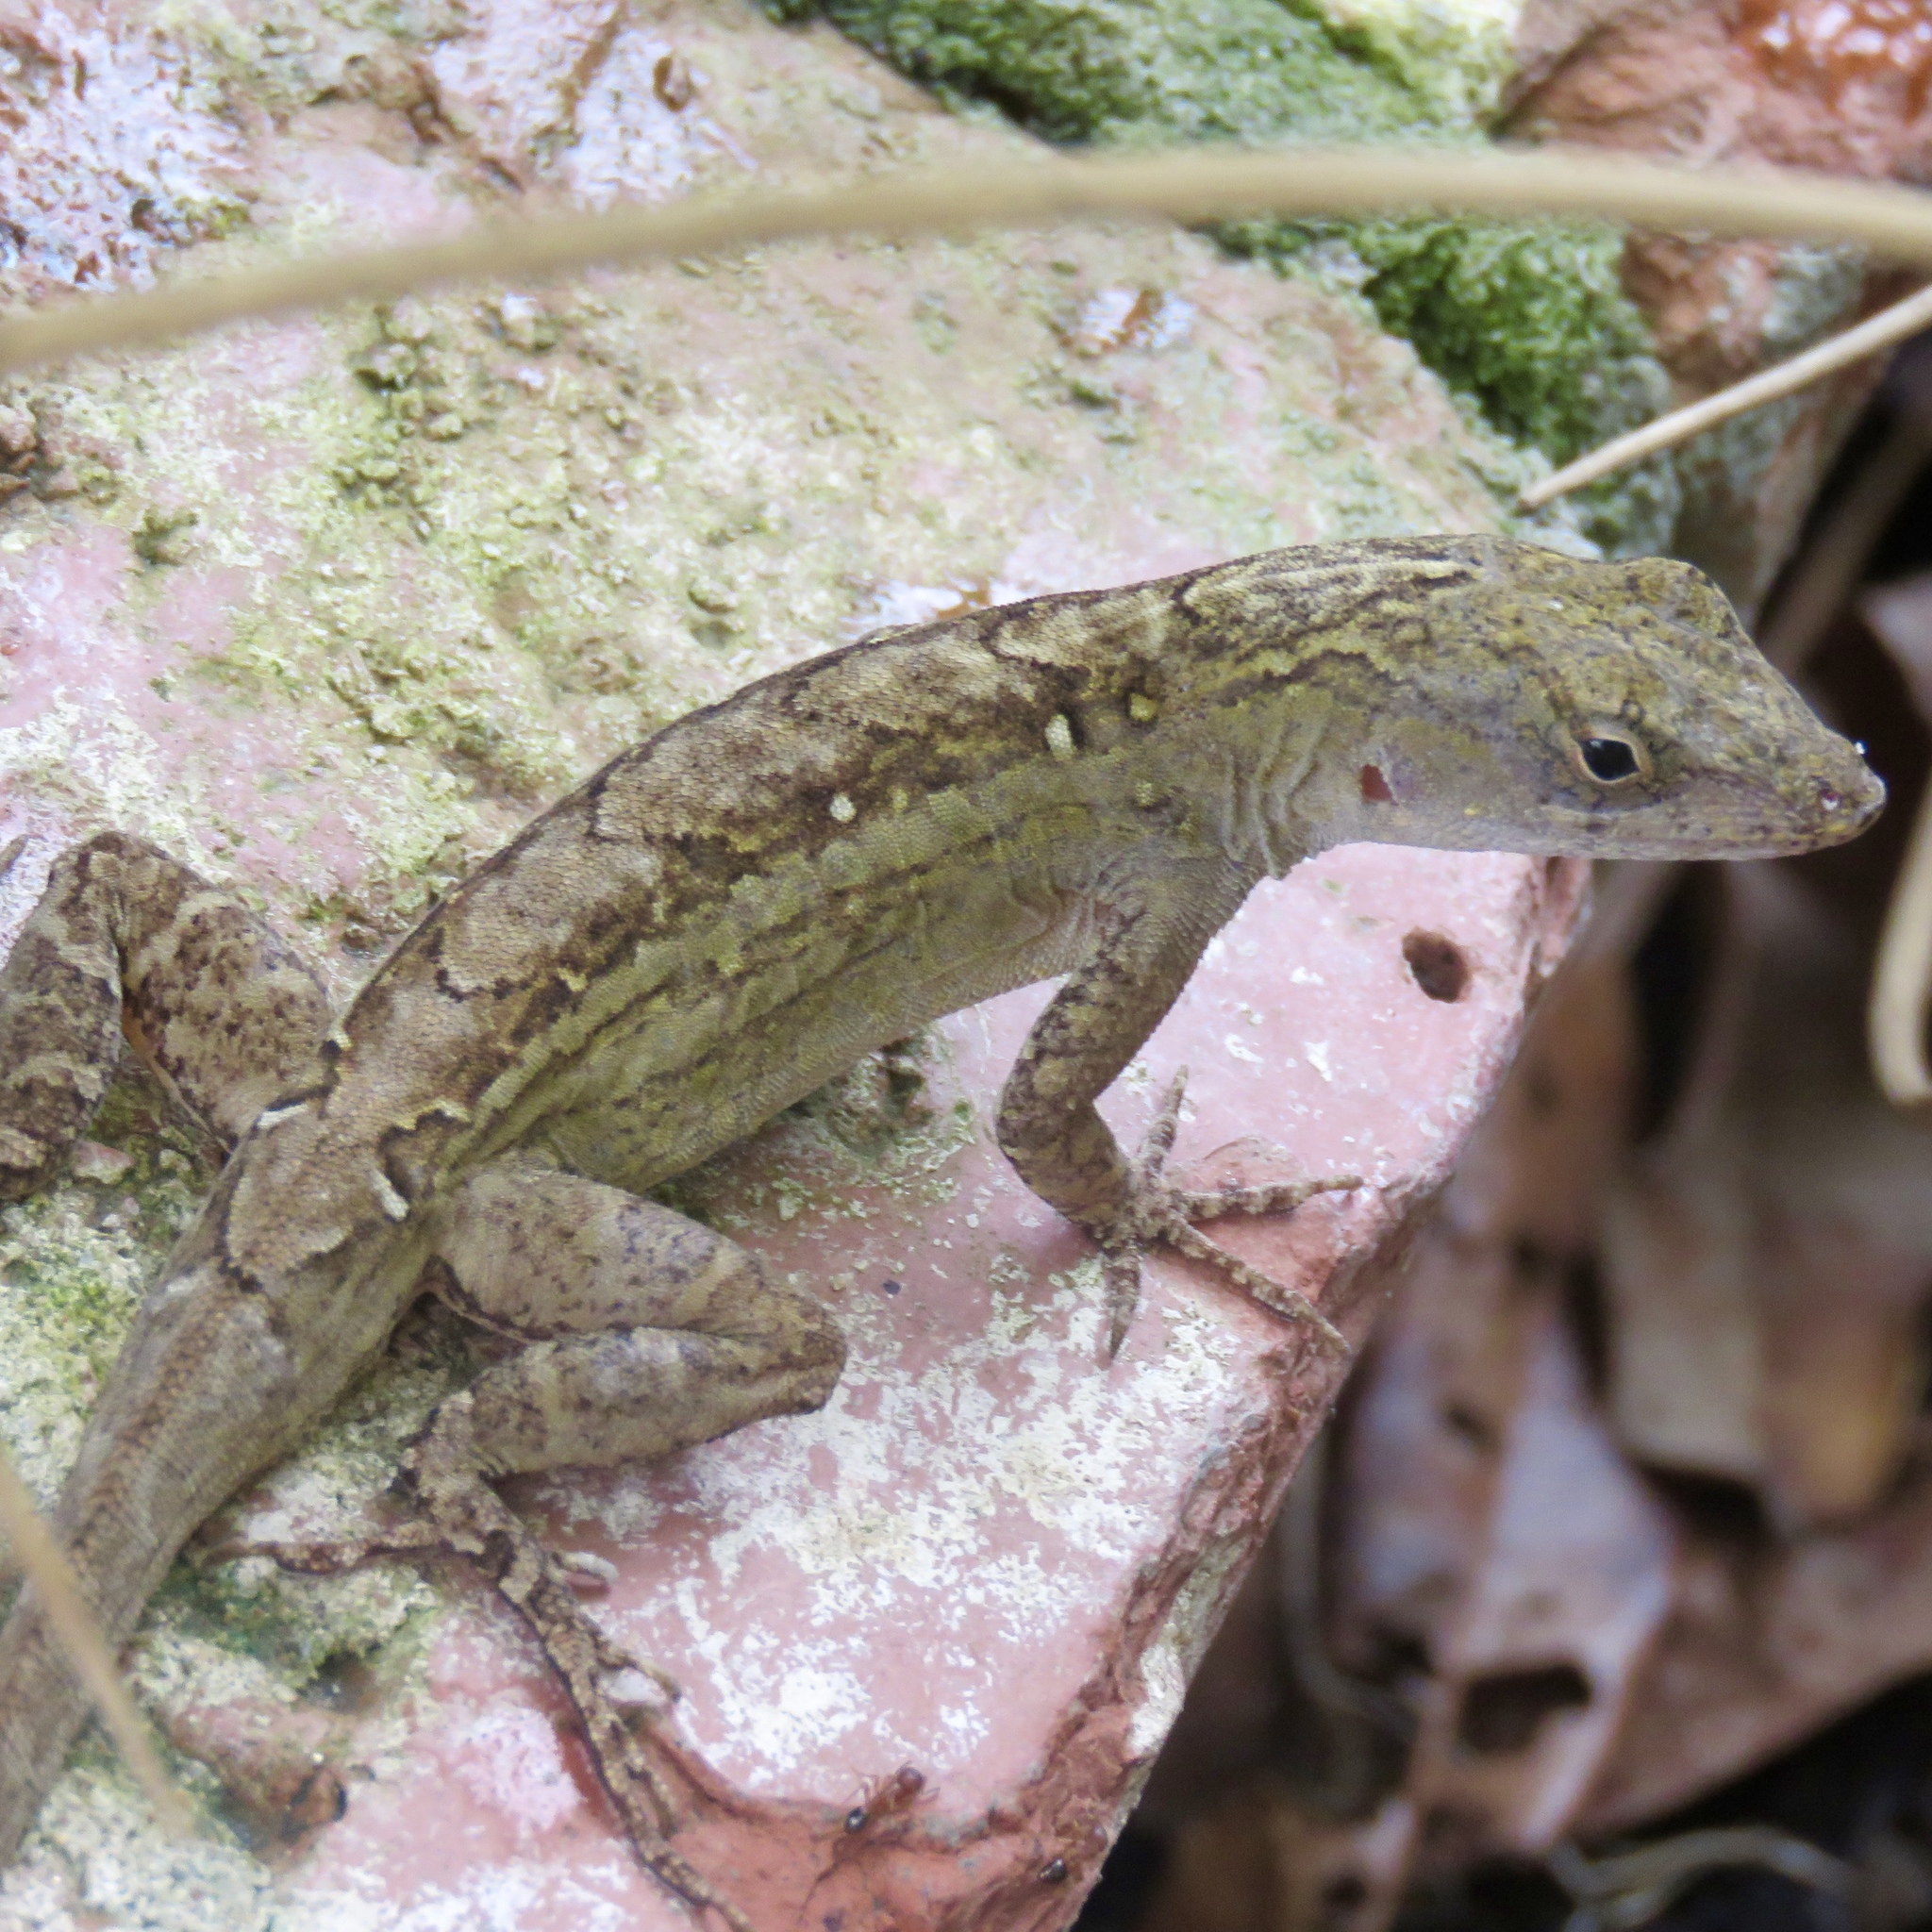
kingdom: Animalia
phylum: Chordata
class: Squamata
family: Dactyloidae
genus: Anolis
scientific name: Anolis sagrei
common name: Brown anole
